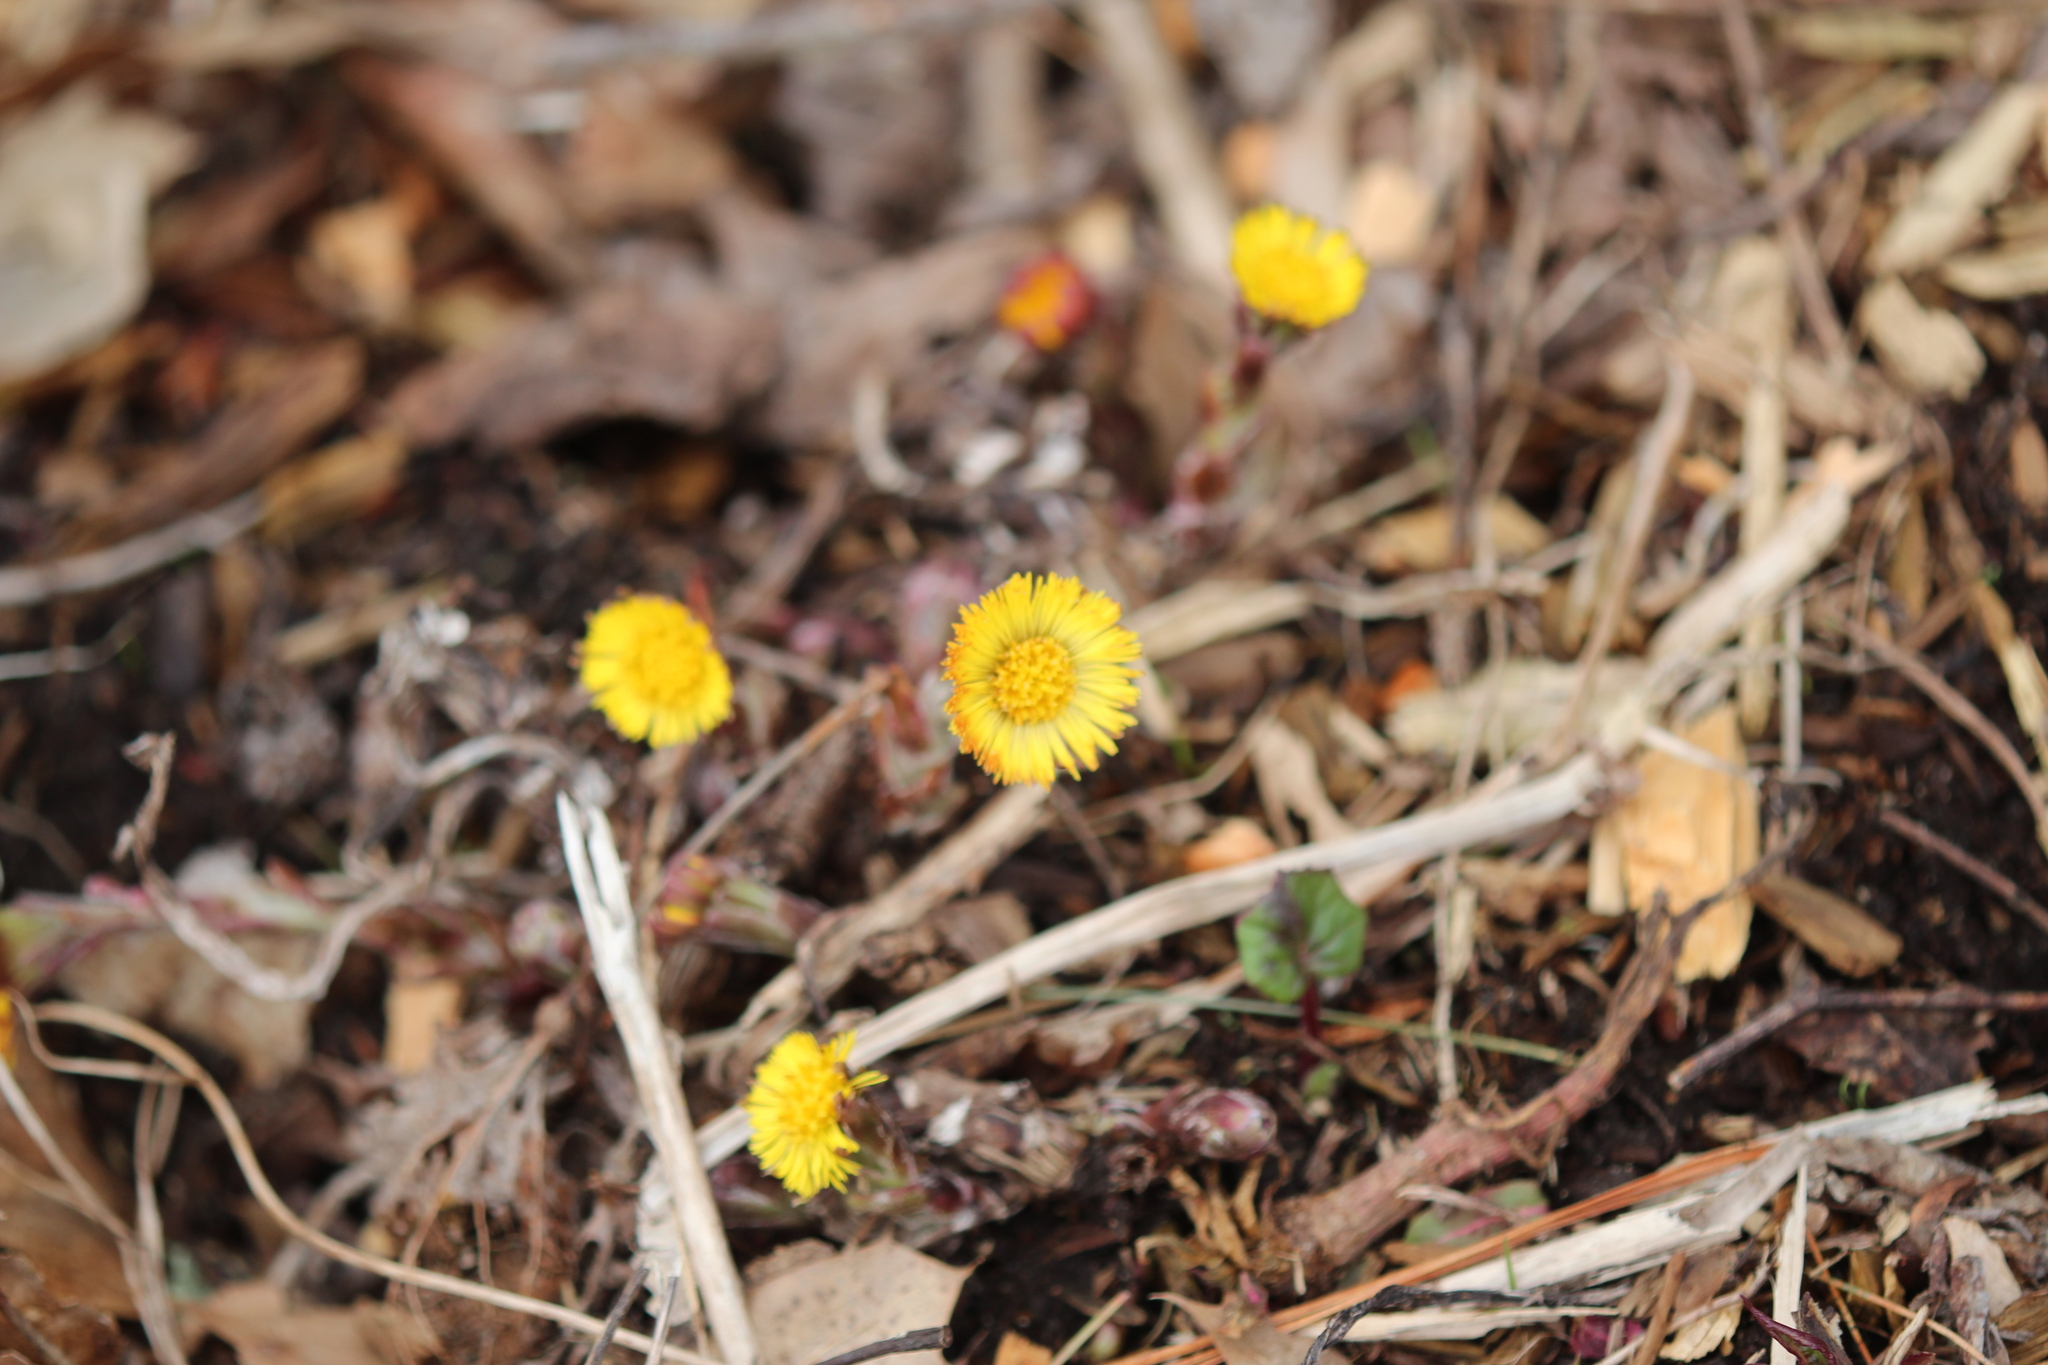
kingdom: Plantae
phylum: Tracheophyta
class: Magnoliopsida
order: Asterales
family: Asteraceae
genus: Tussilago
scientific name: Tussilago farfara
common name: Coltsfoot
